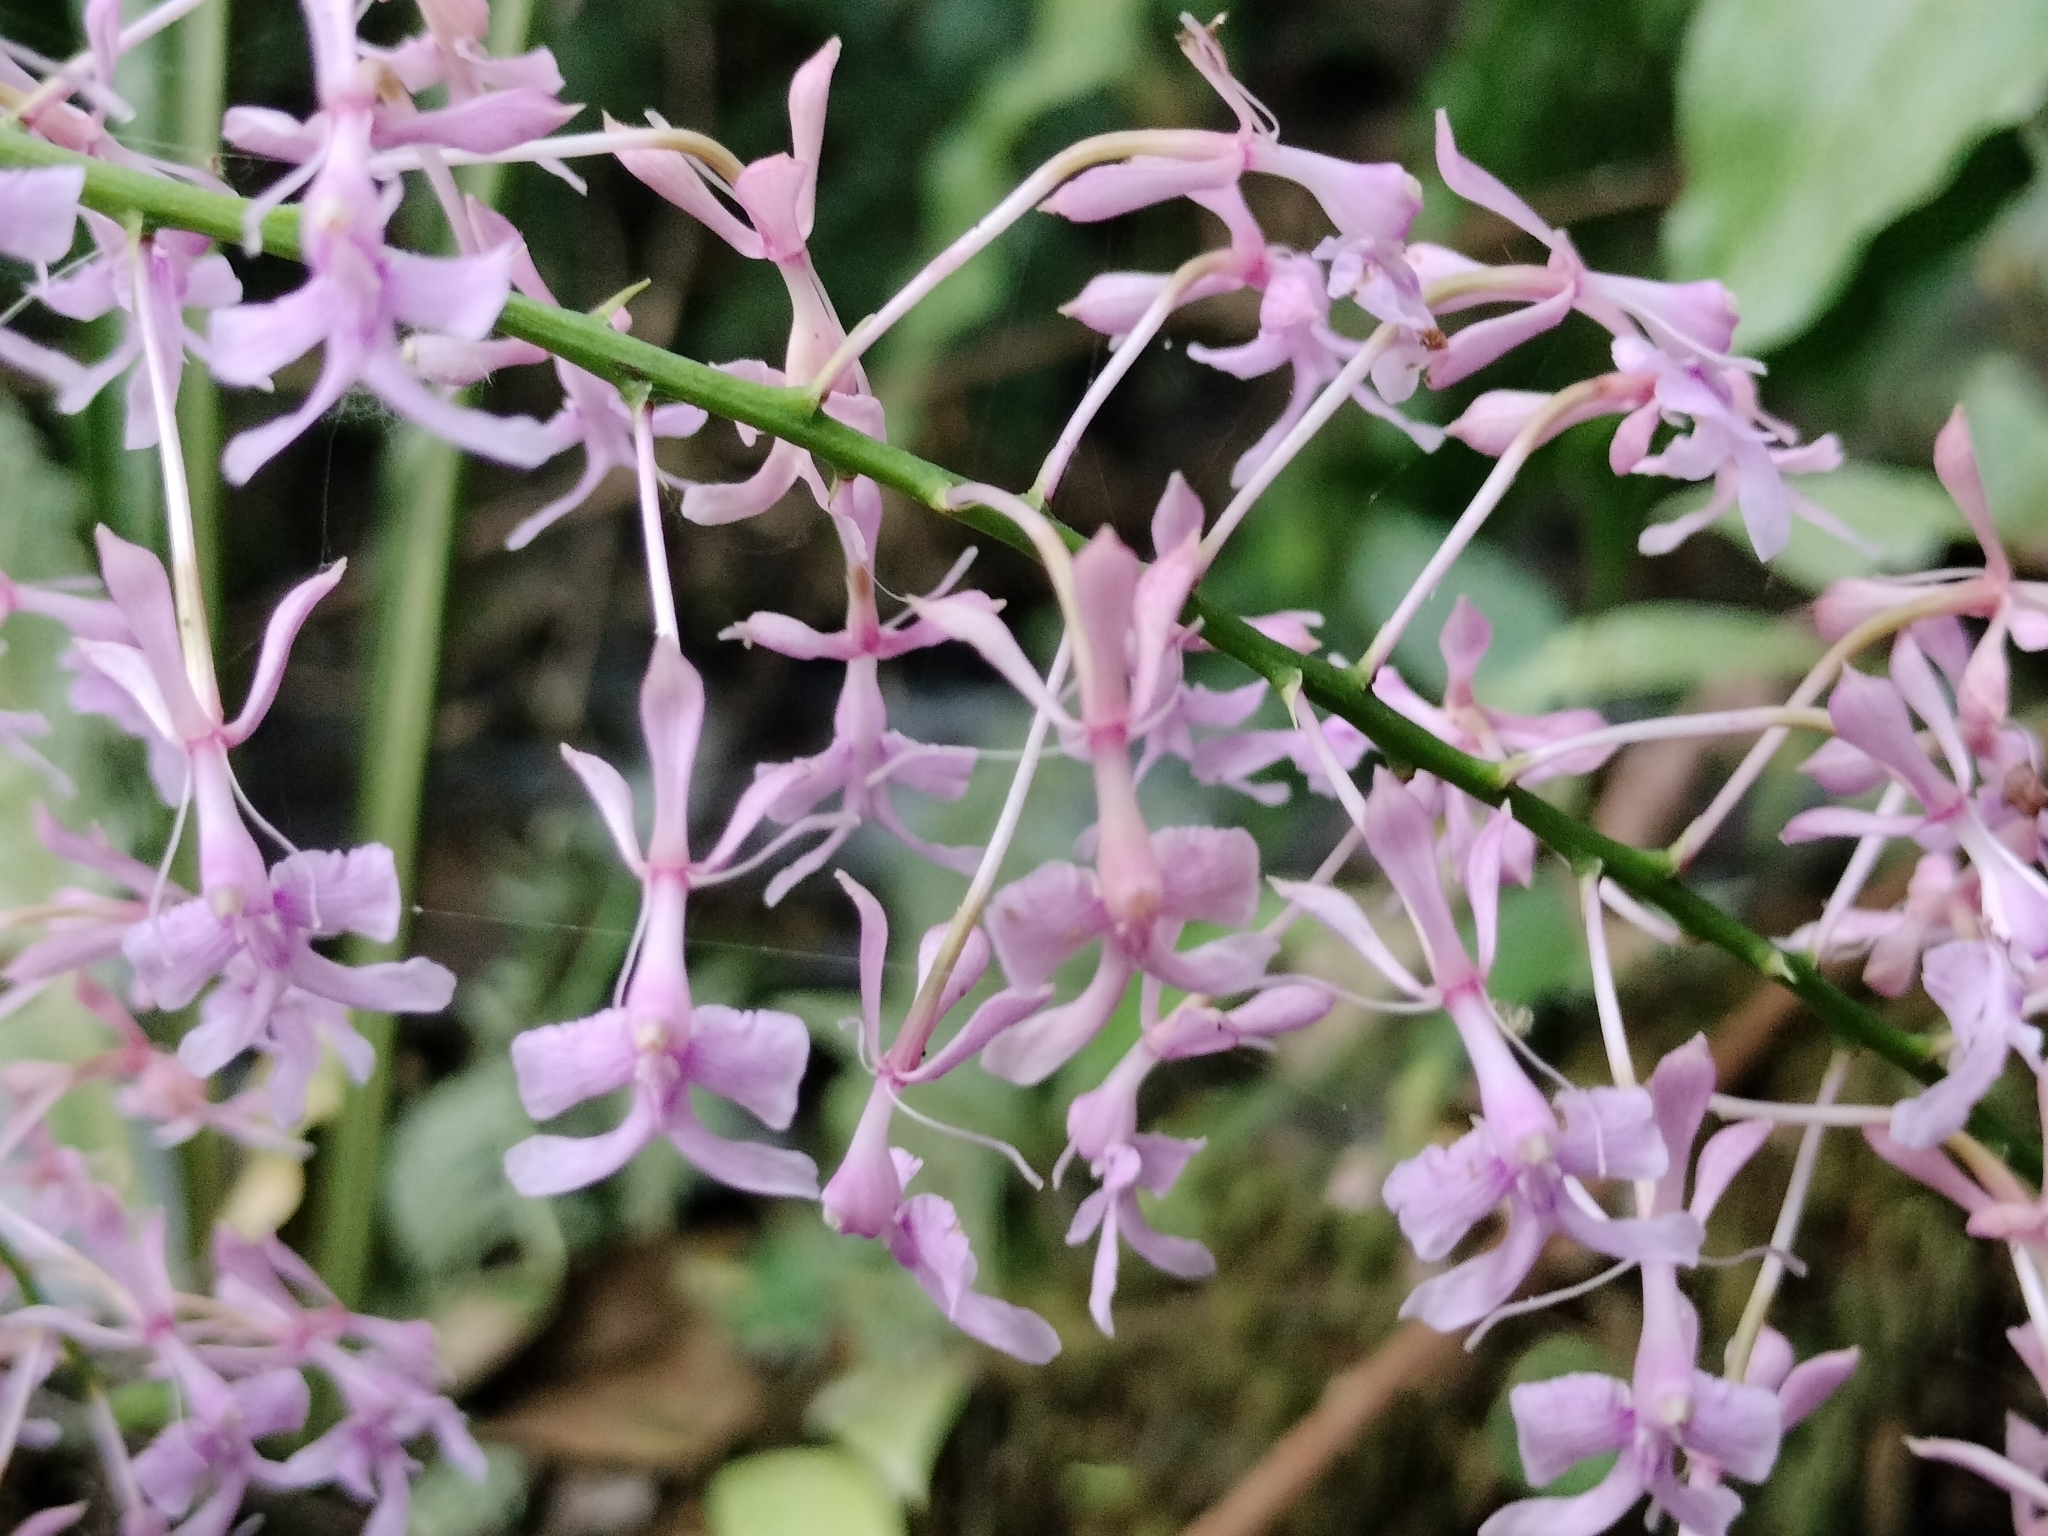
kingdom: Plantae
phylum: Tracheophyta
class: Liliopsida
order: Asparagales
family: Orchidaceae
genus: Epidendrum
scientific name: Epidendrum amplum
